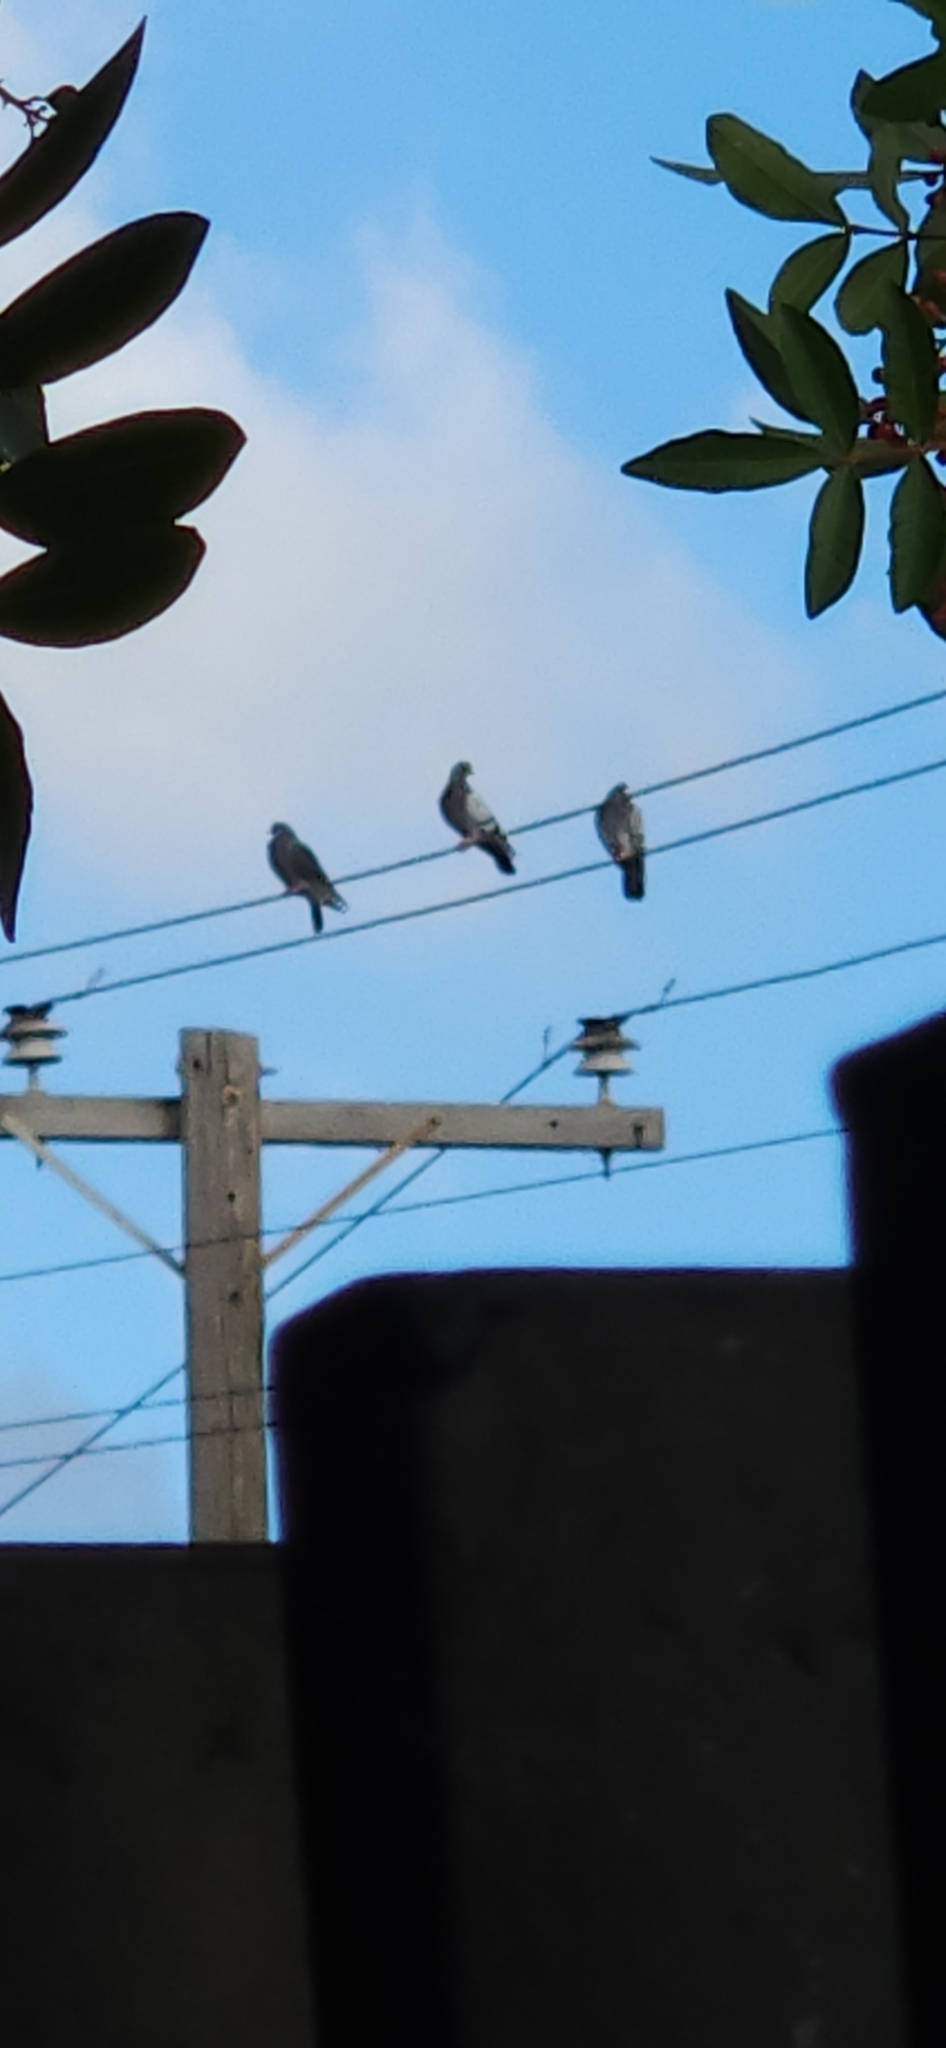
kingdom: Animalia
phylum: Chordata
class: Aves
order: Columbiformes
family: Columbidae
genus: Columba
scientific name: Columba livia
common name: Rock pigeon
